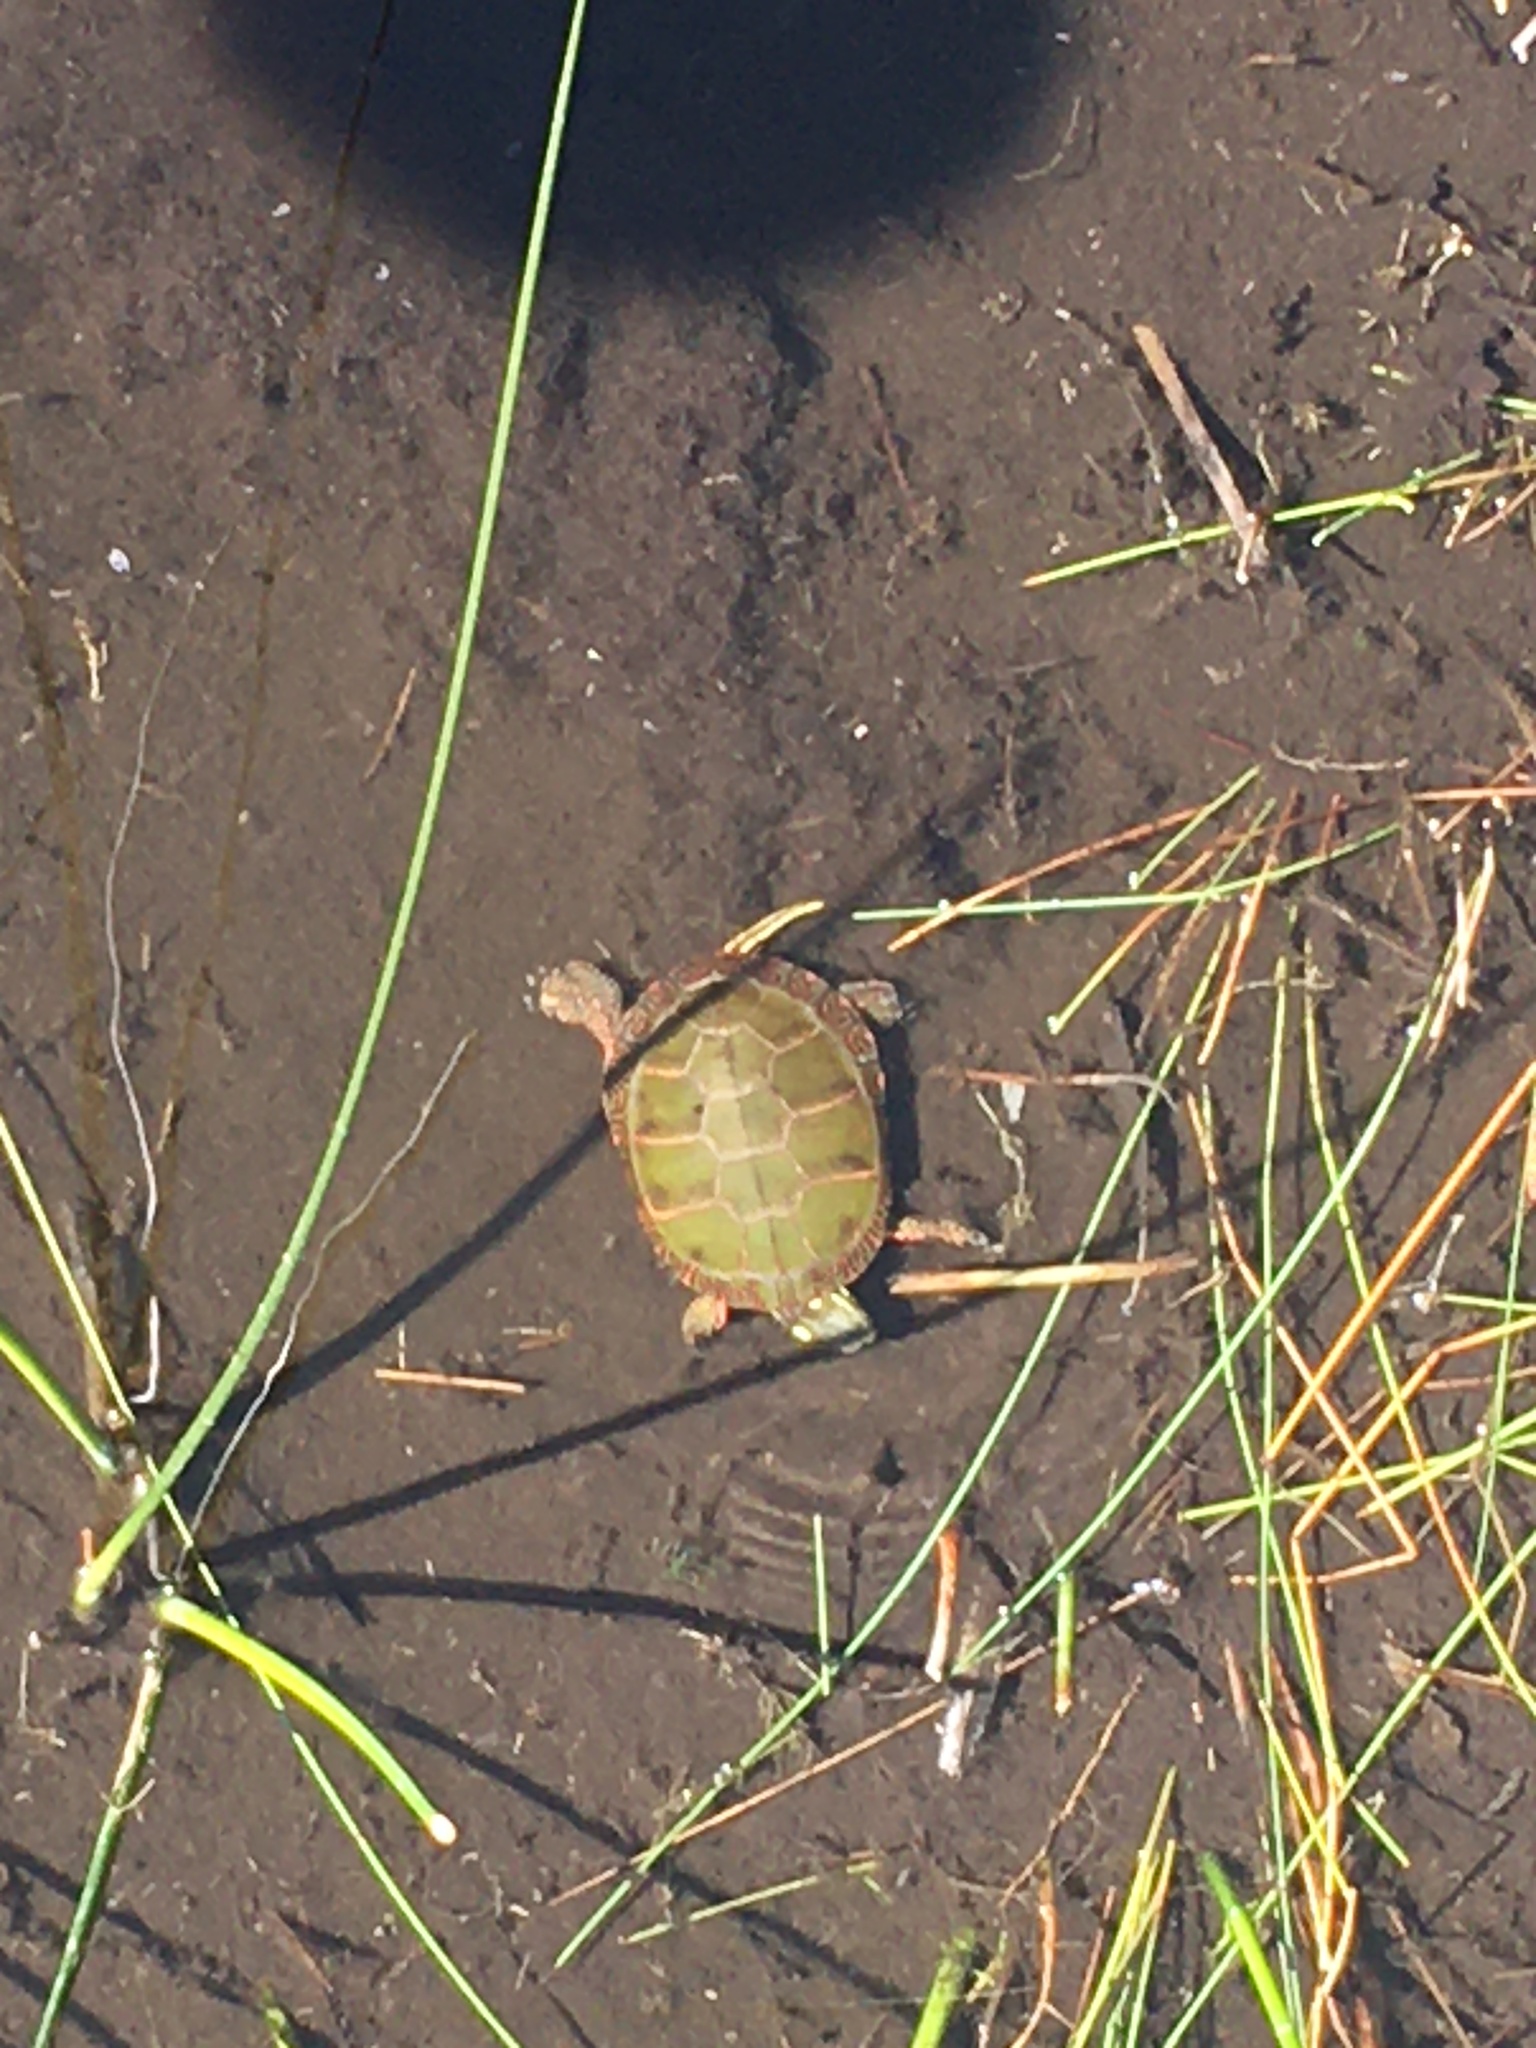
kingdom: Animalia
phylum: Chordata
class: Testudines
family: Emydidae
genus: Chrysemys
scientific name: Chrysemys picta
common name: Painted turtle
